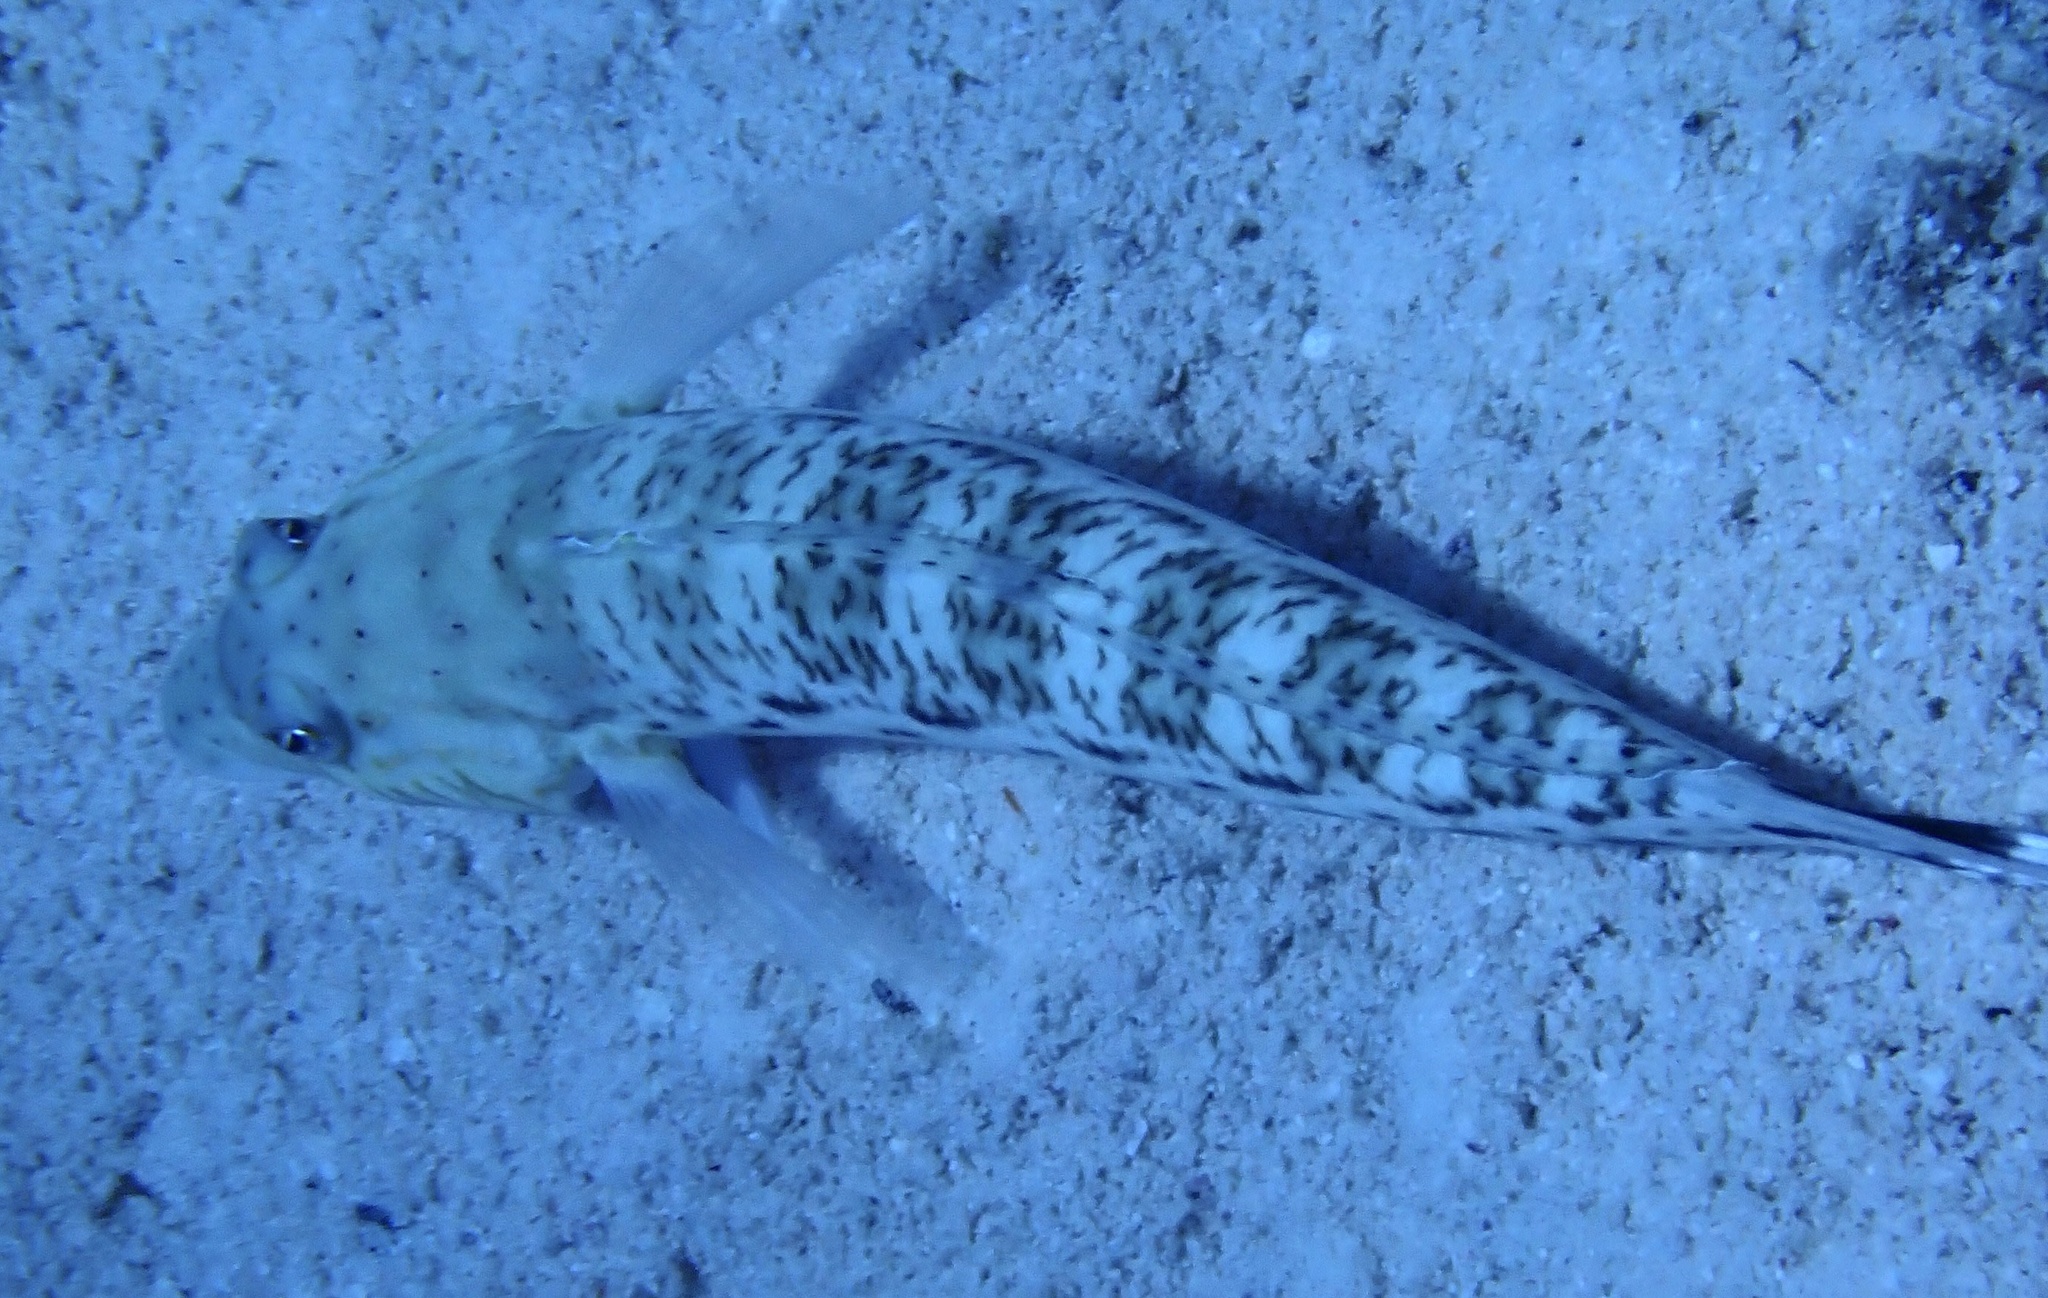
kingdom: Animalia
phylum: Chordata
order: Perciformes
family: Pinguipedidae
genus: Parapercis
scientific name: Parapercis hexophtalma
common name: Speckled sandperch
